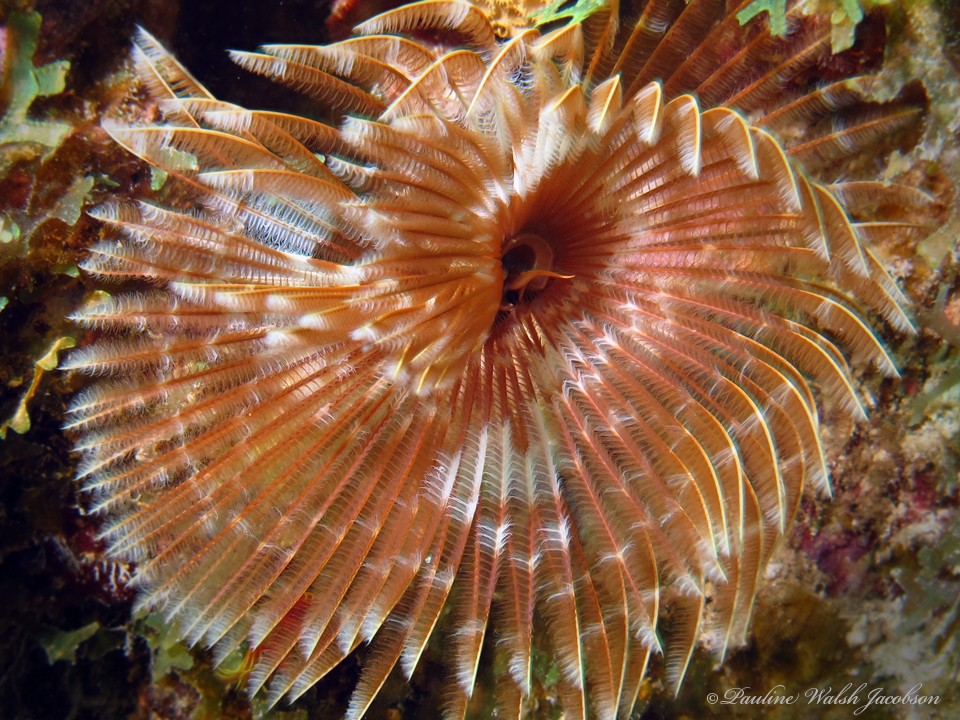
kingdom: Animalia
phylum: Annelida
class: Polychaeta
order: Sabellida
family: Sabellidae
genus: Sabellastarte
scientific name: Sabellastarte magnifica
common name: Giant feather-duster worm
